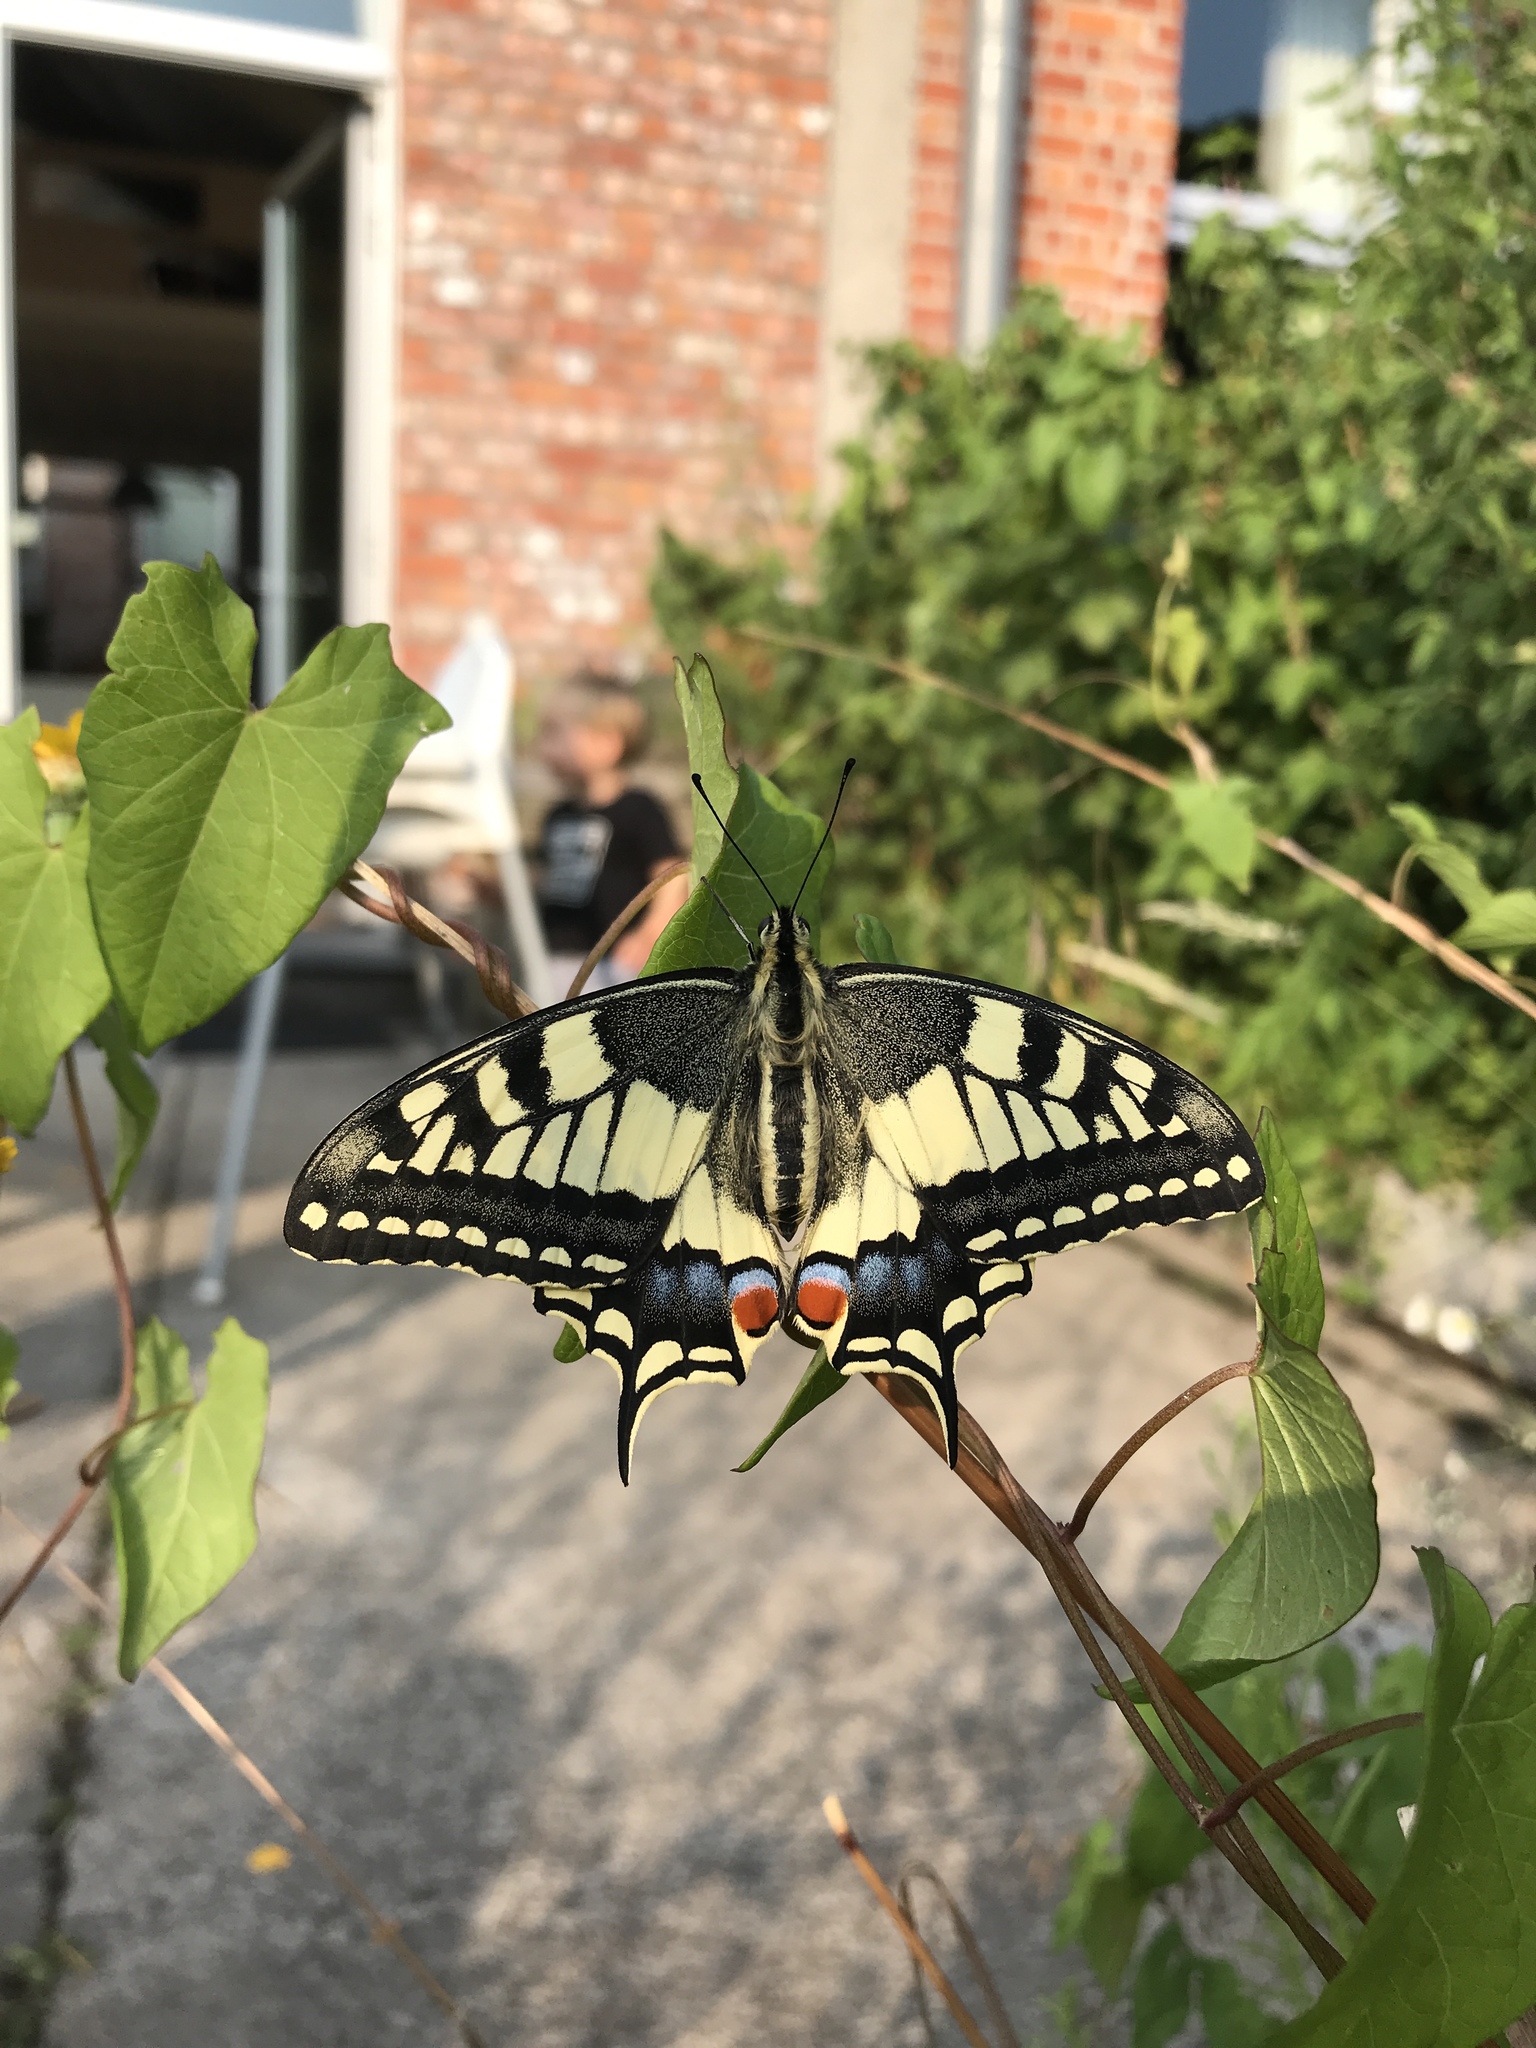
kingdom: Animalia
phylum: Arthropoda
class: Insecta
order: Lepidoptera
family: Papilionidae
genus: Papilio
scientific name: Papilio machaon
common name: Swallowtail
